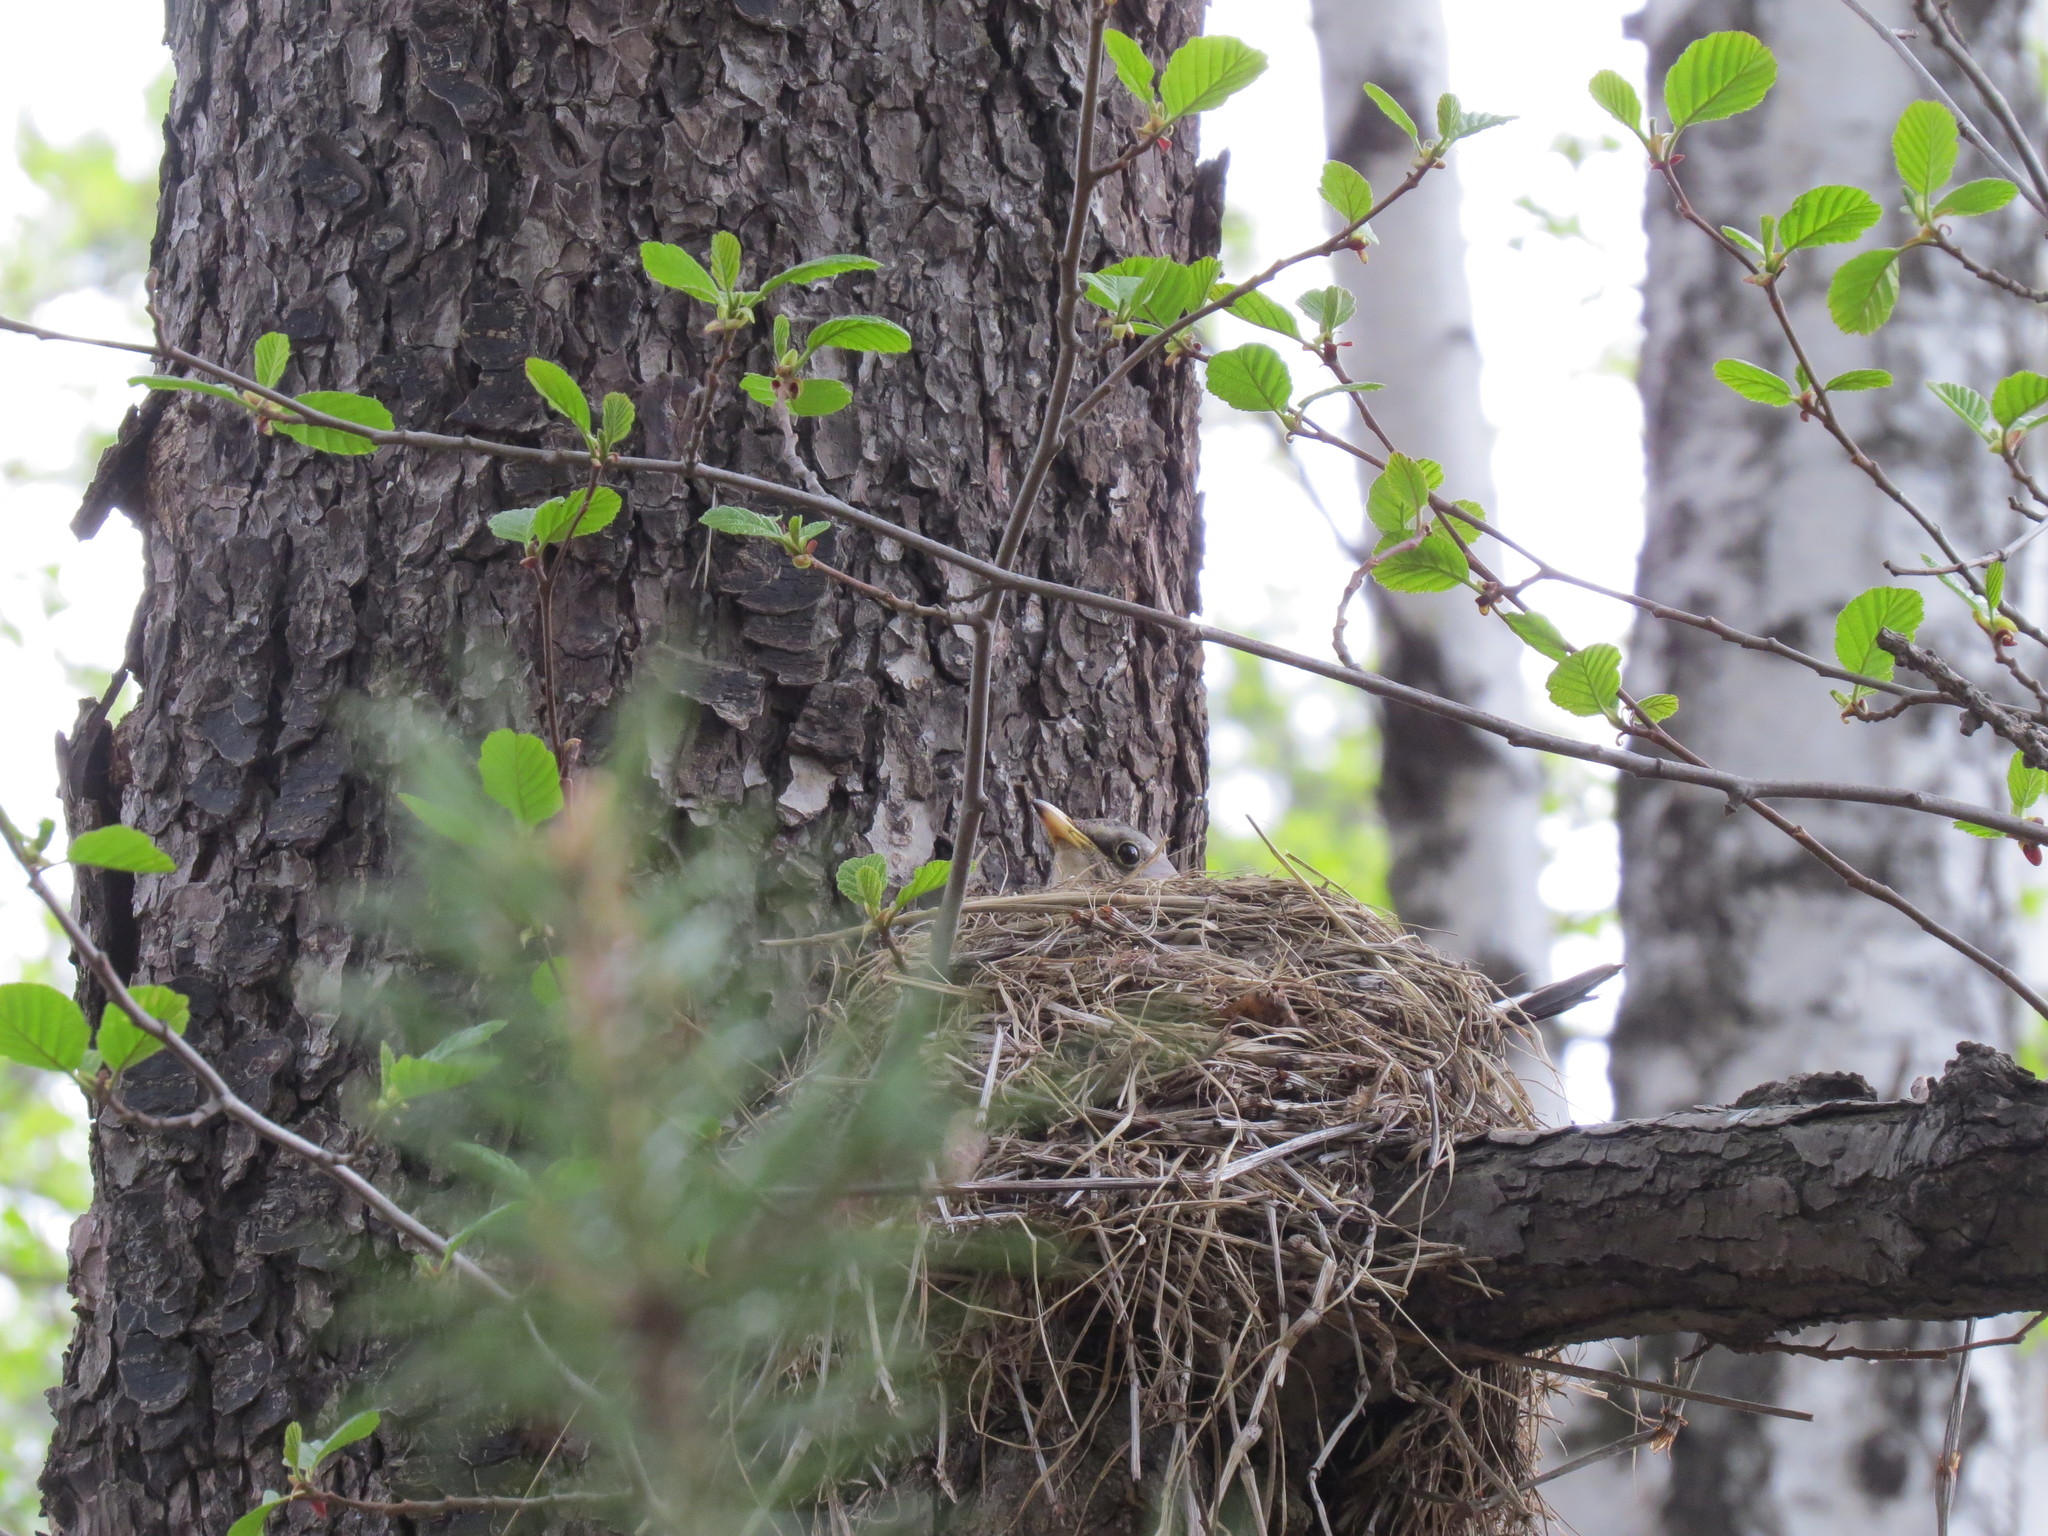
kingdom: Animalia
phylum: Chordata
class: Aves
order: Passeriformes
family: Turdidae
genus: Turdus
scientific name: Turdus pilaris
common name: Fieldfare
